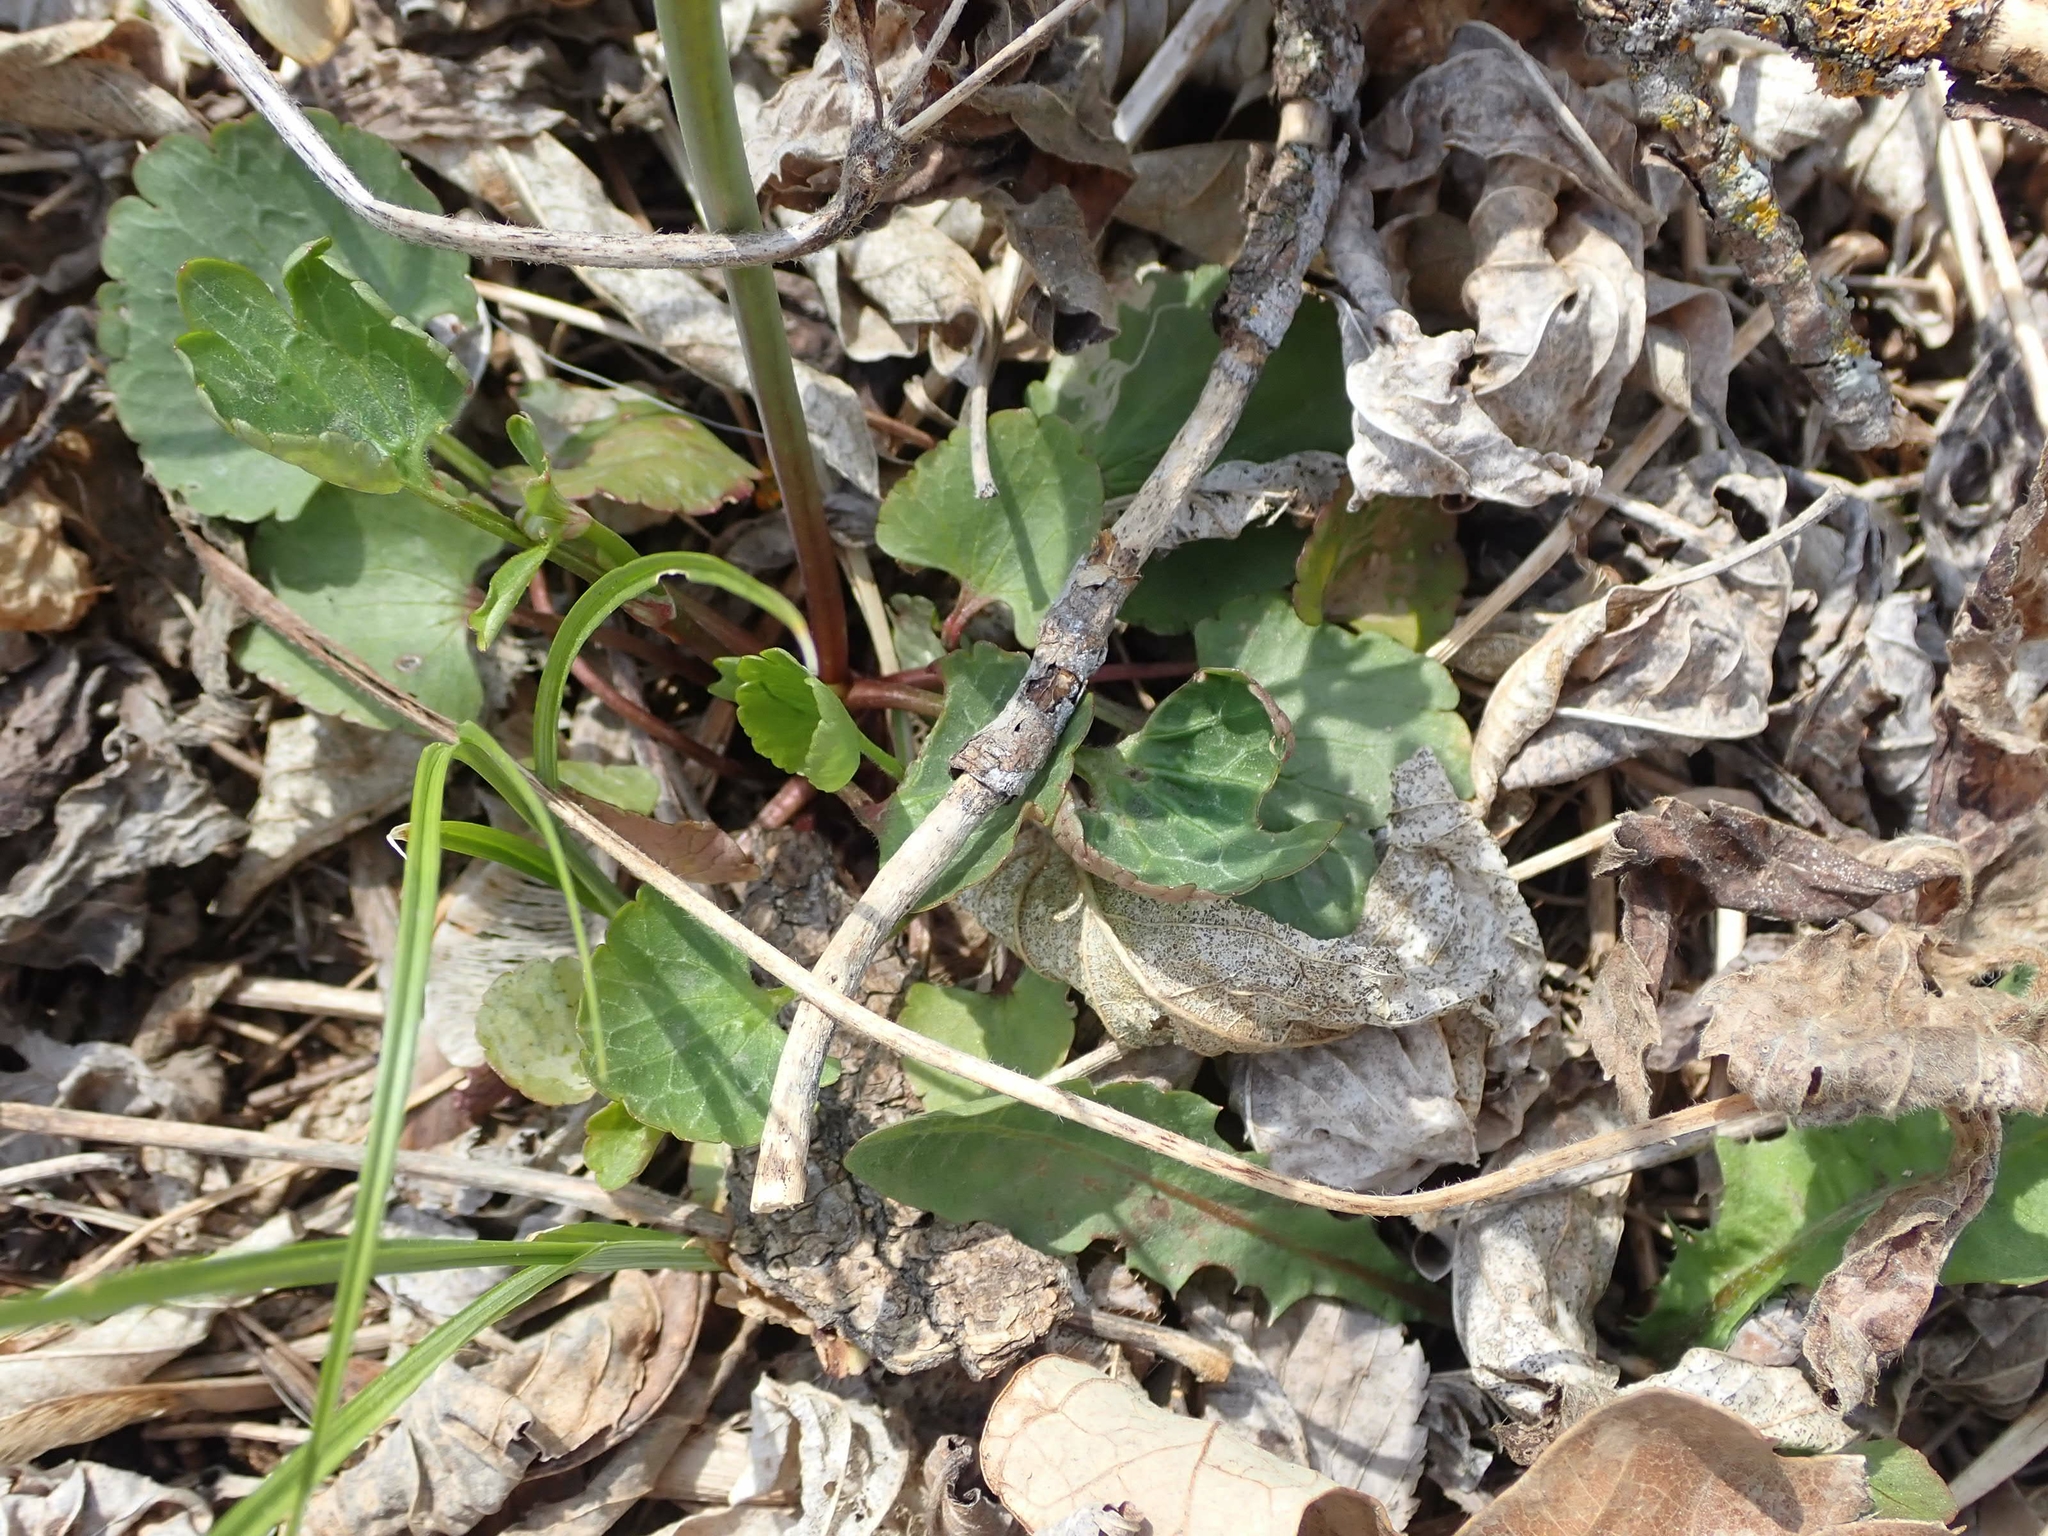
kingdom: Plantae
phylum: Tracheophyta
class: Magnoliopsida
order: Ranunculales
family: Ranunculaceae
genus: Ranunculus
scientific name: Ranunculus abortivus
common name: Early wood buttercup
